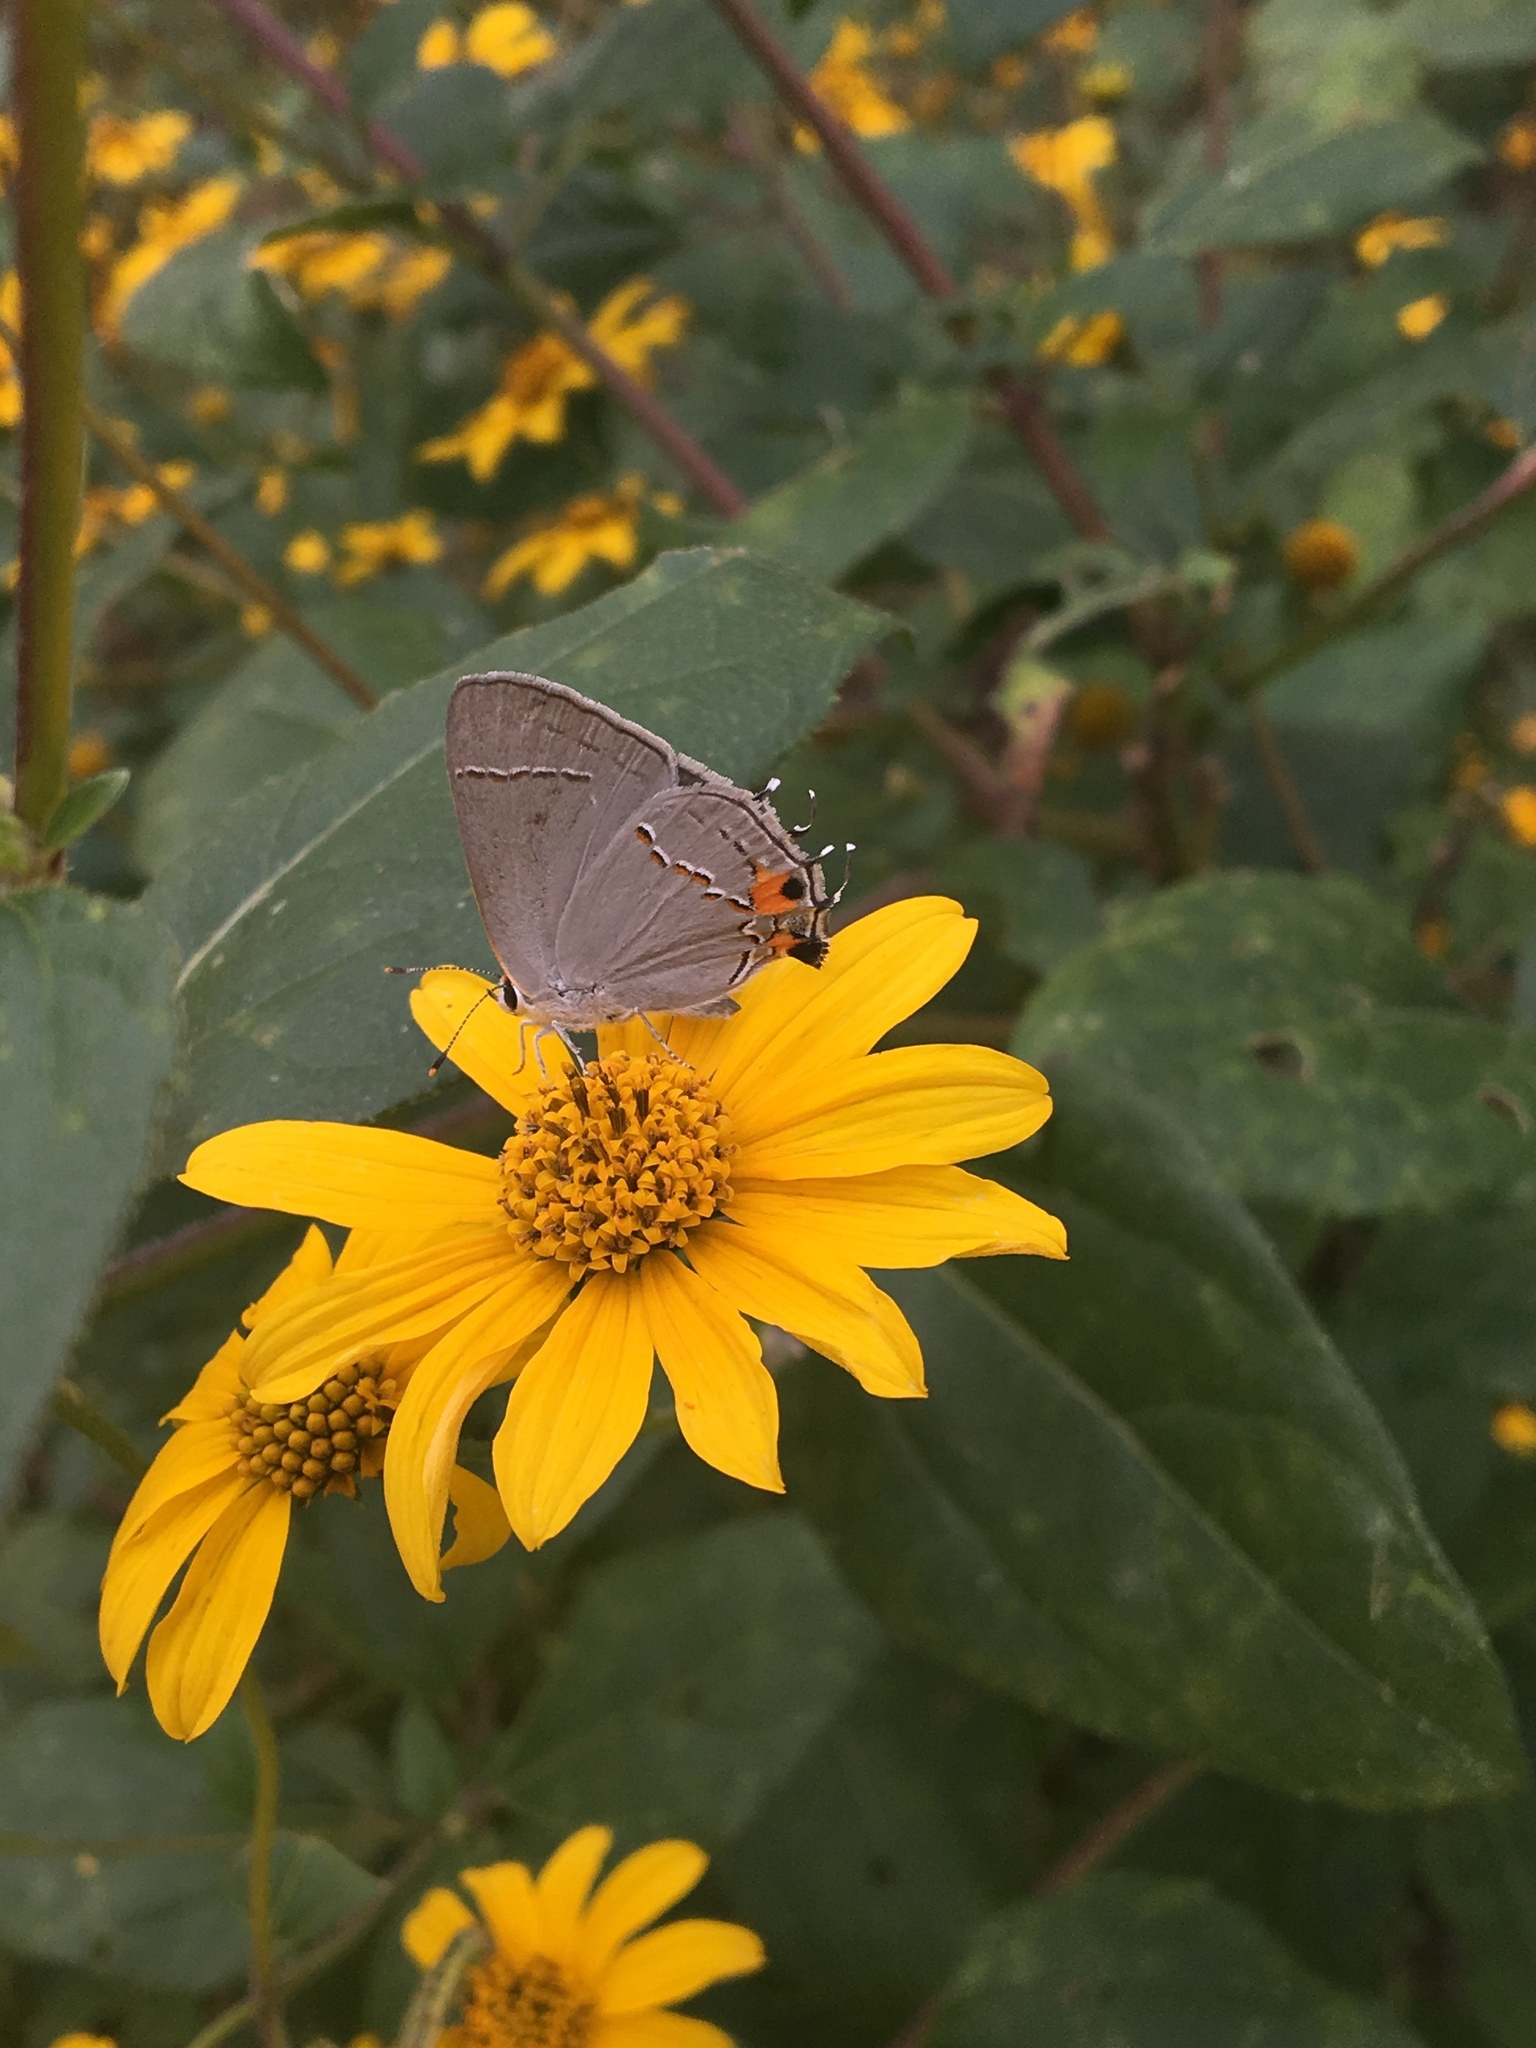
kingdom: Animalia
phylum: Arthropoda
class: Insecta
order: Lepidoptera
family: Lycaenidae
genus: Strymon
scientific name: Strymon melinus
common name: Gray hairstreak
